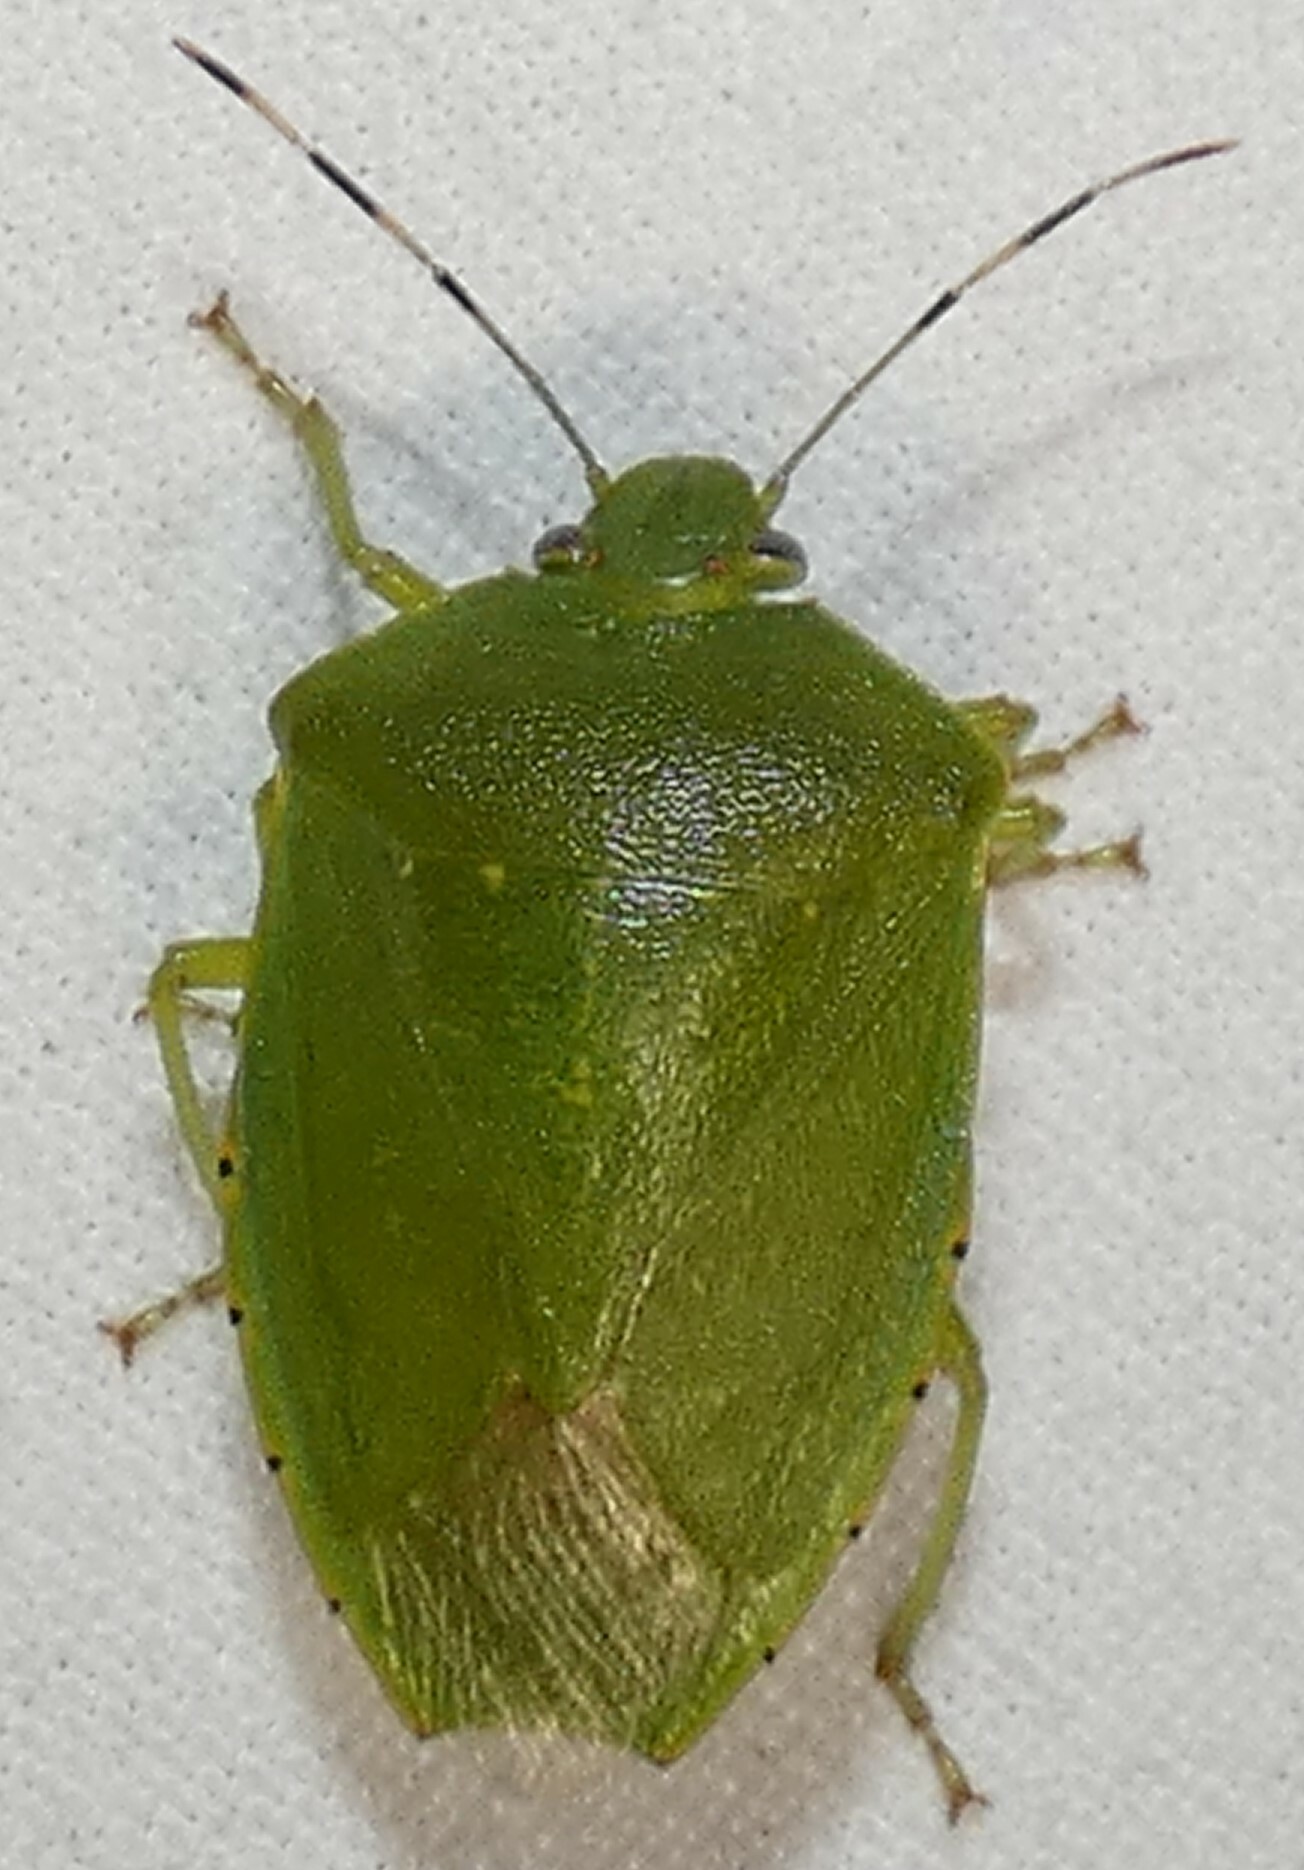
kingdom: Animalia
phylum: Arthropoda
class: Insecta
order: Hemiptera
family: Pentatomidae
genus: Chinavia
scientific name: Chinavia hilaris
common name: Green stink bug
